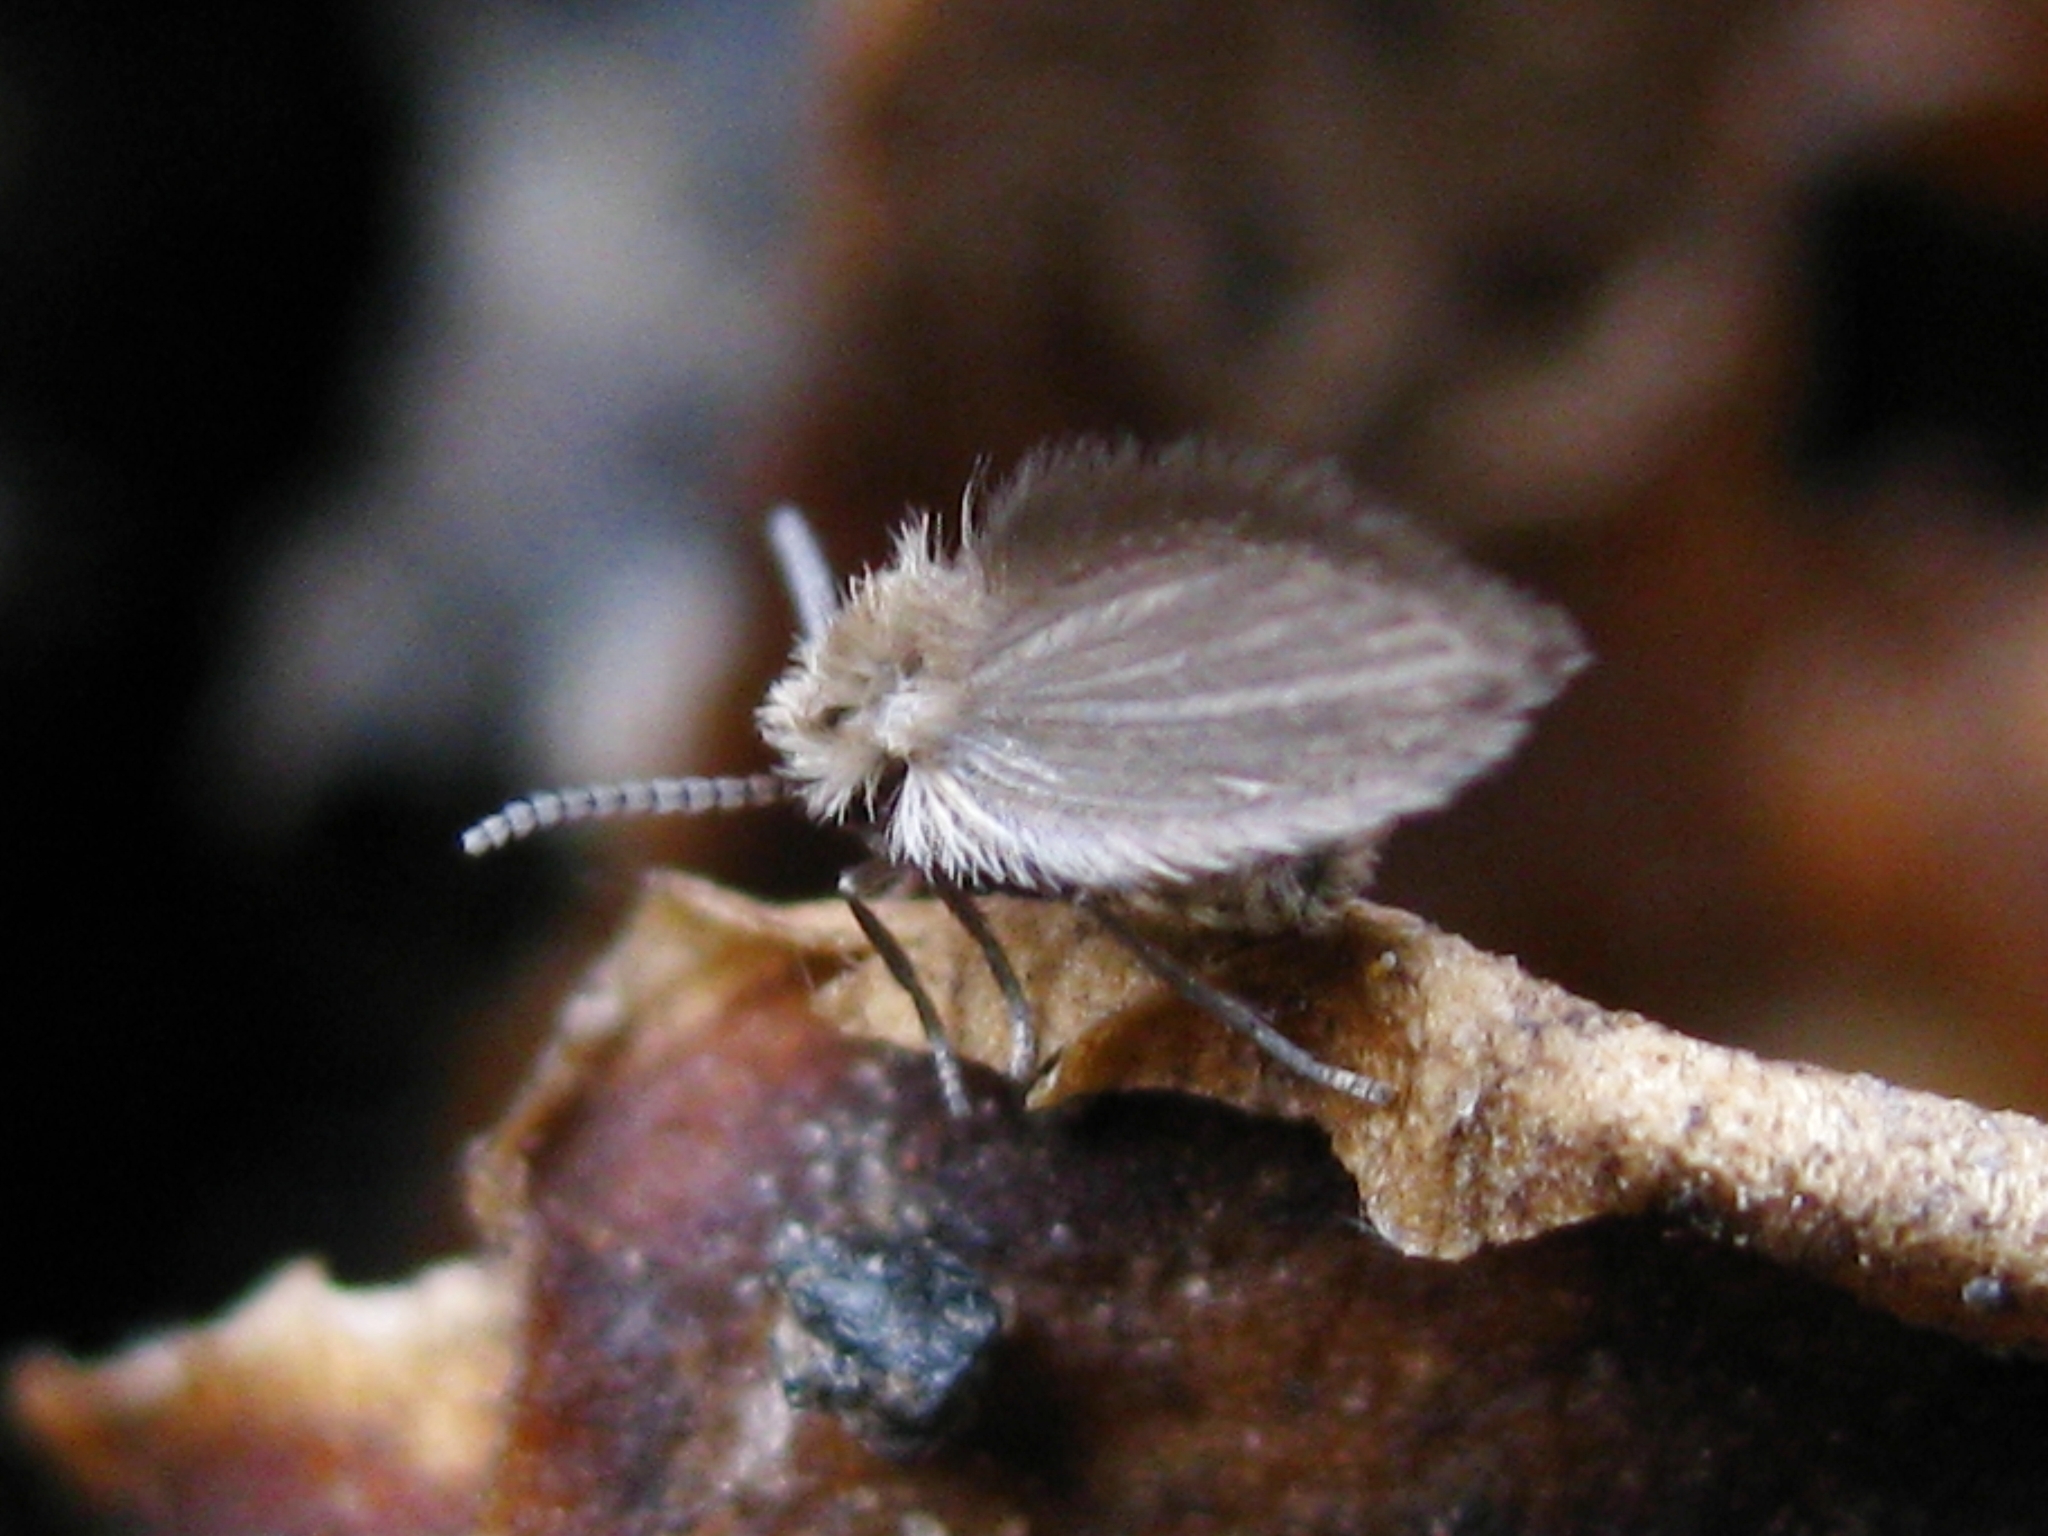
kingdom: Animalia
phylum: Arthropoda
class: Insecta
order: Diptera
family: Psychodidae
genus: Psychoda
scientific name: Psychoda
